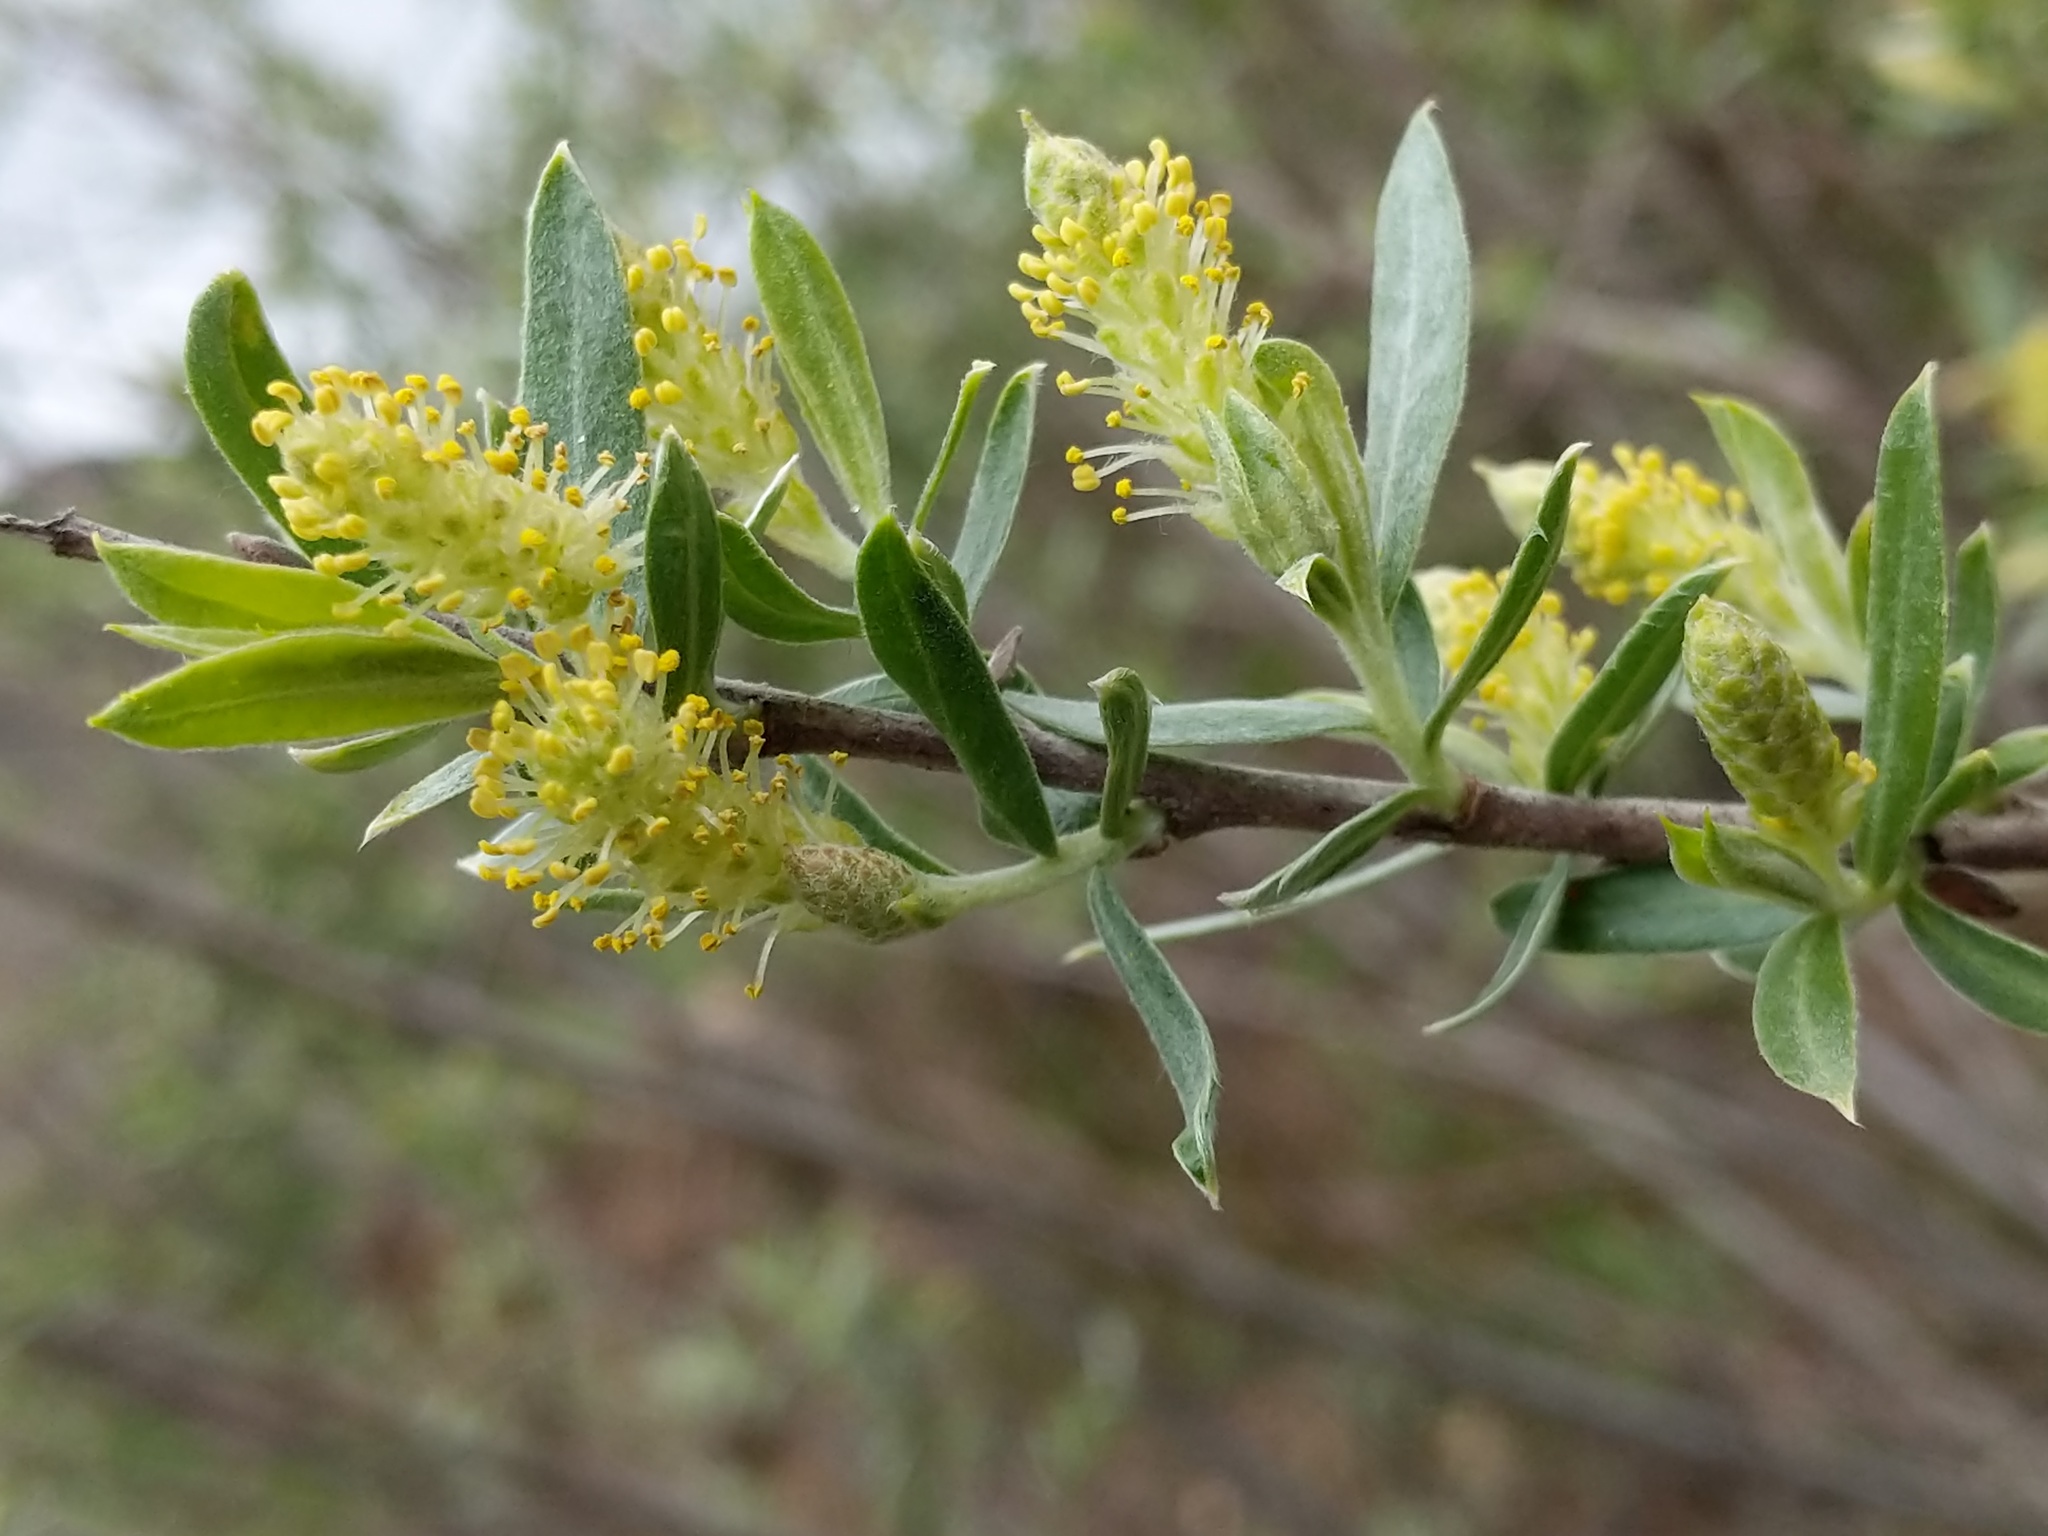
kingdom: Plantae
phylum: Tracheophyta
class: Magnoliopsida
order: Malpighiales
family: Salicaceae
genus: Salix
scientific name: Salix exigua
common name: Coyote willow
